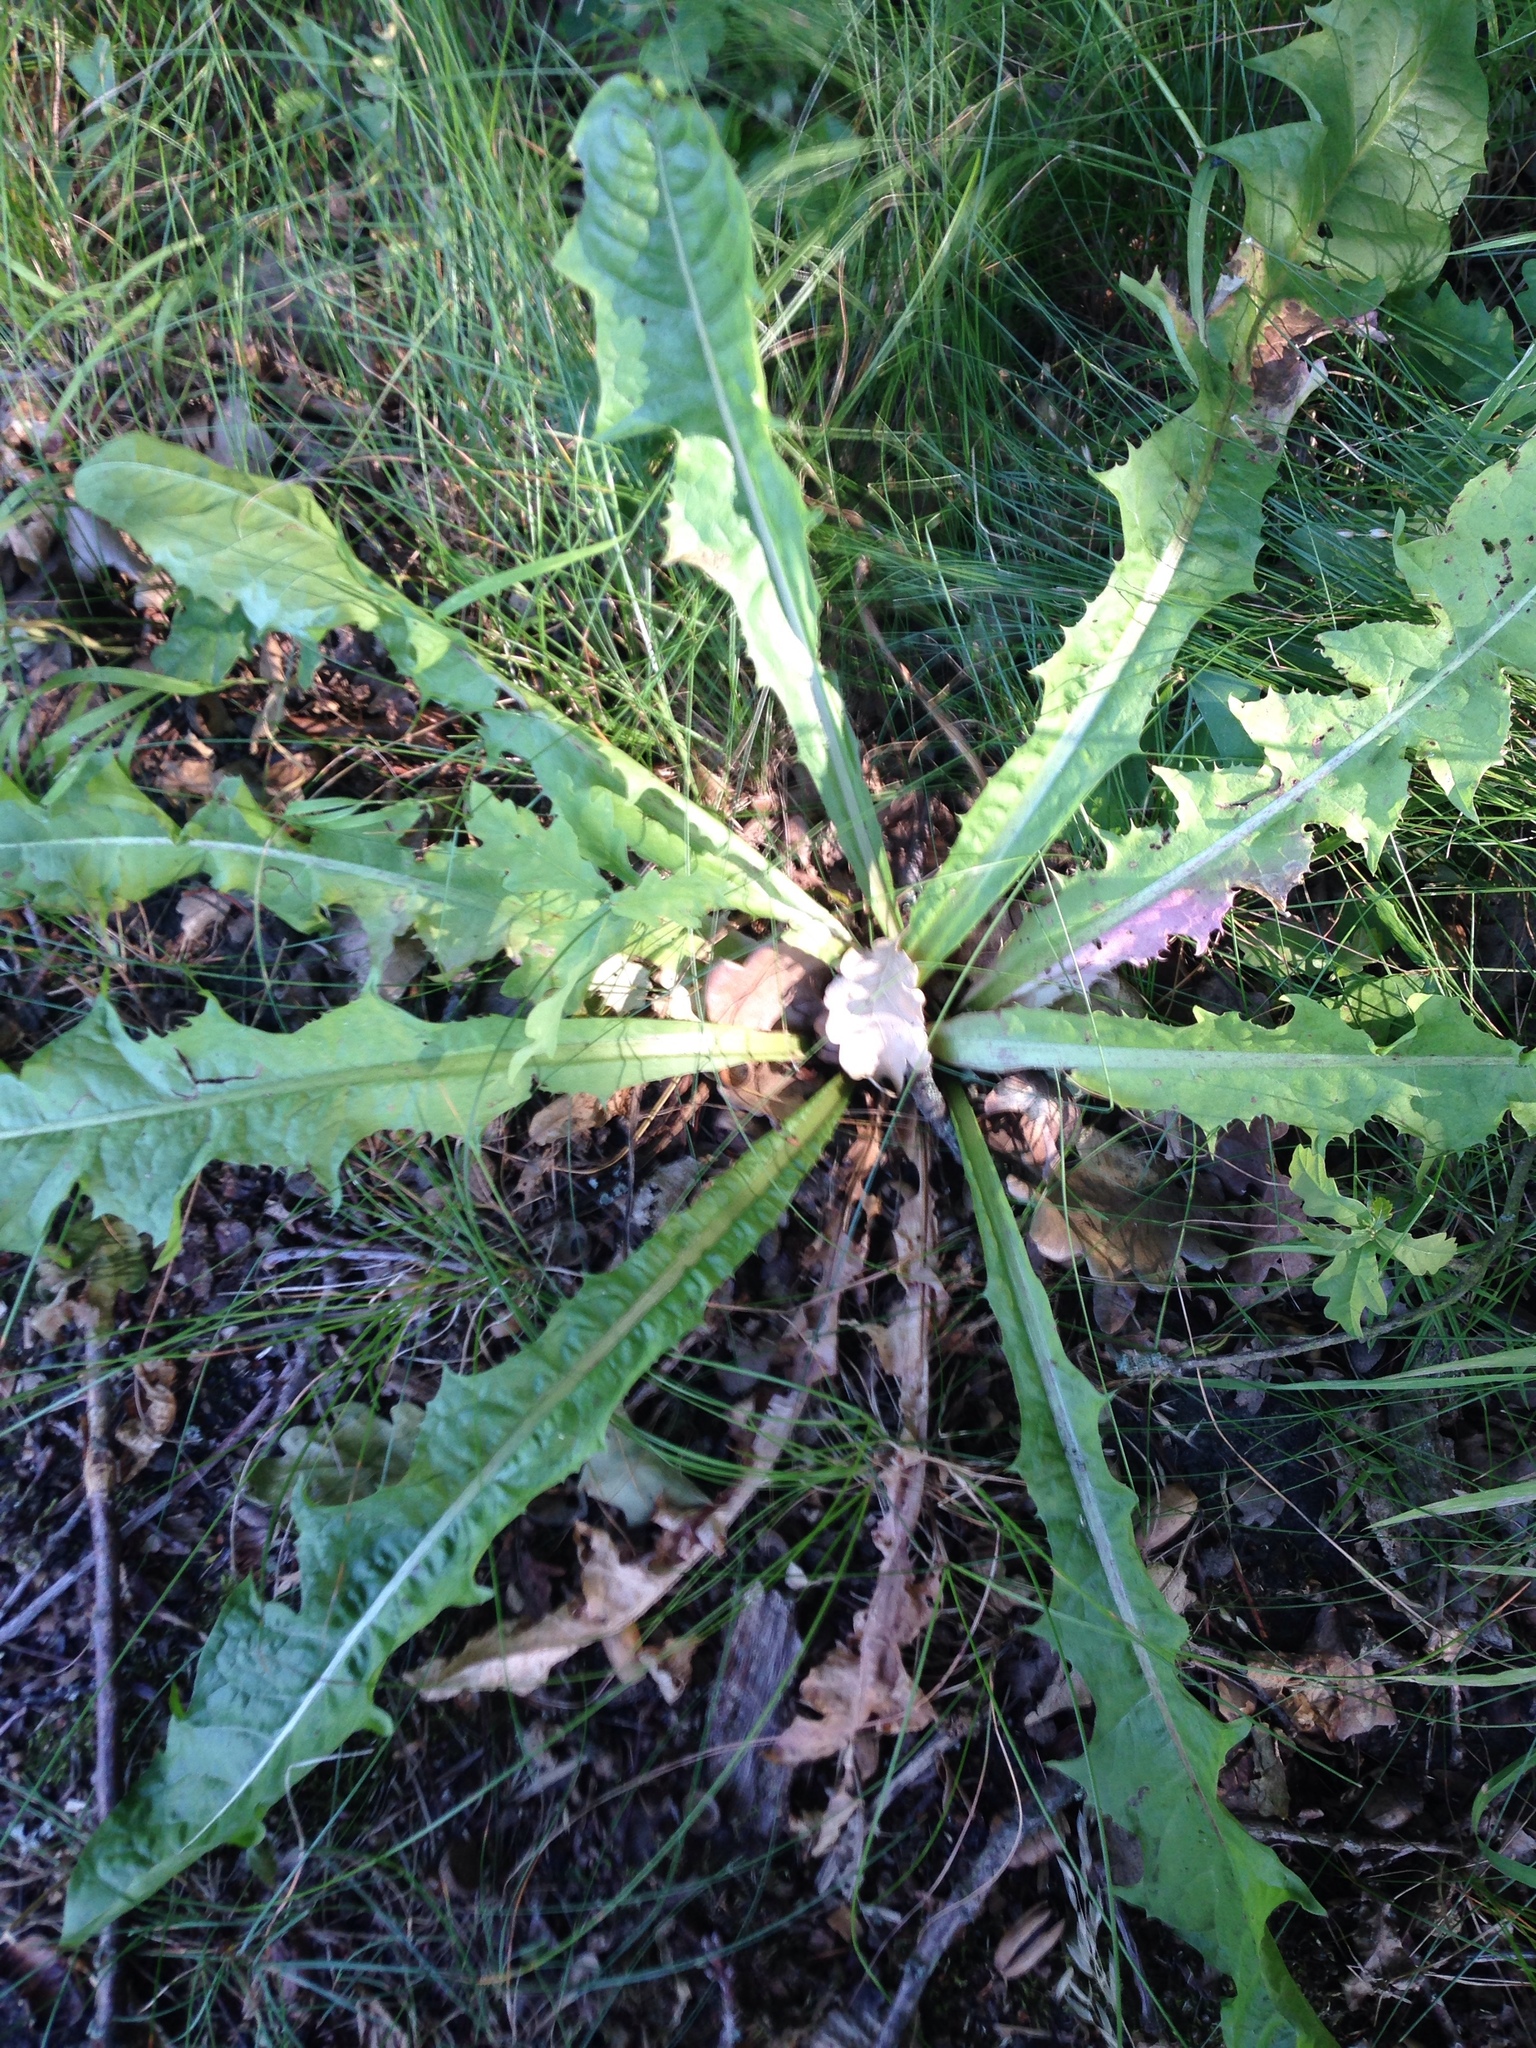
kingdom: Plantae
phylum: Tracheophyta
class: Magnoliopsida
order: Asterales
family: Asteraceae
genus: Taraxacum
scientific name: Taraxacum officinale
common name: Common dandelion
